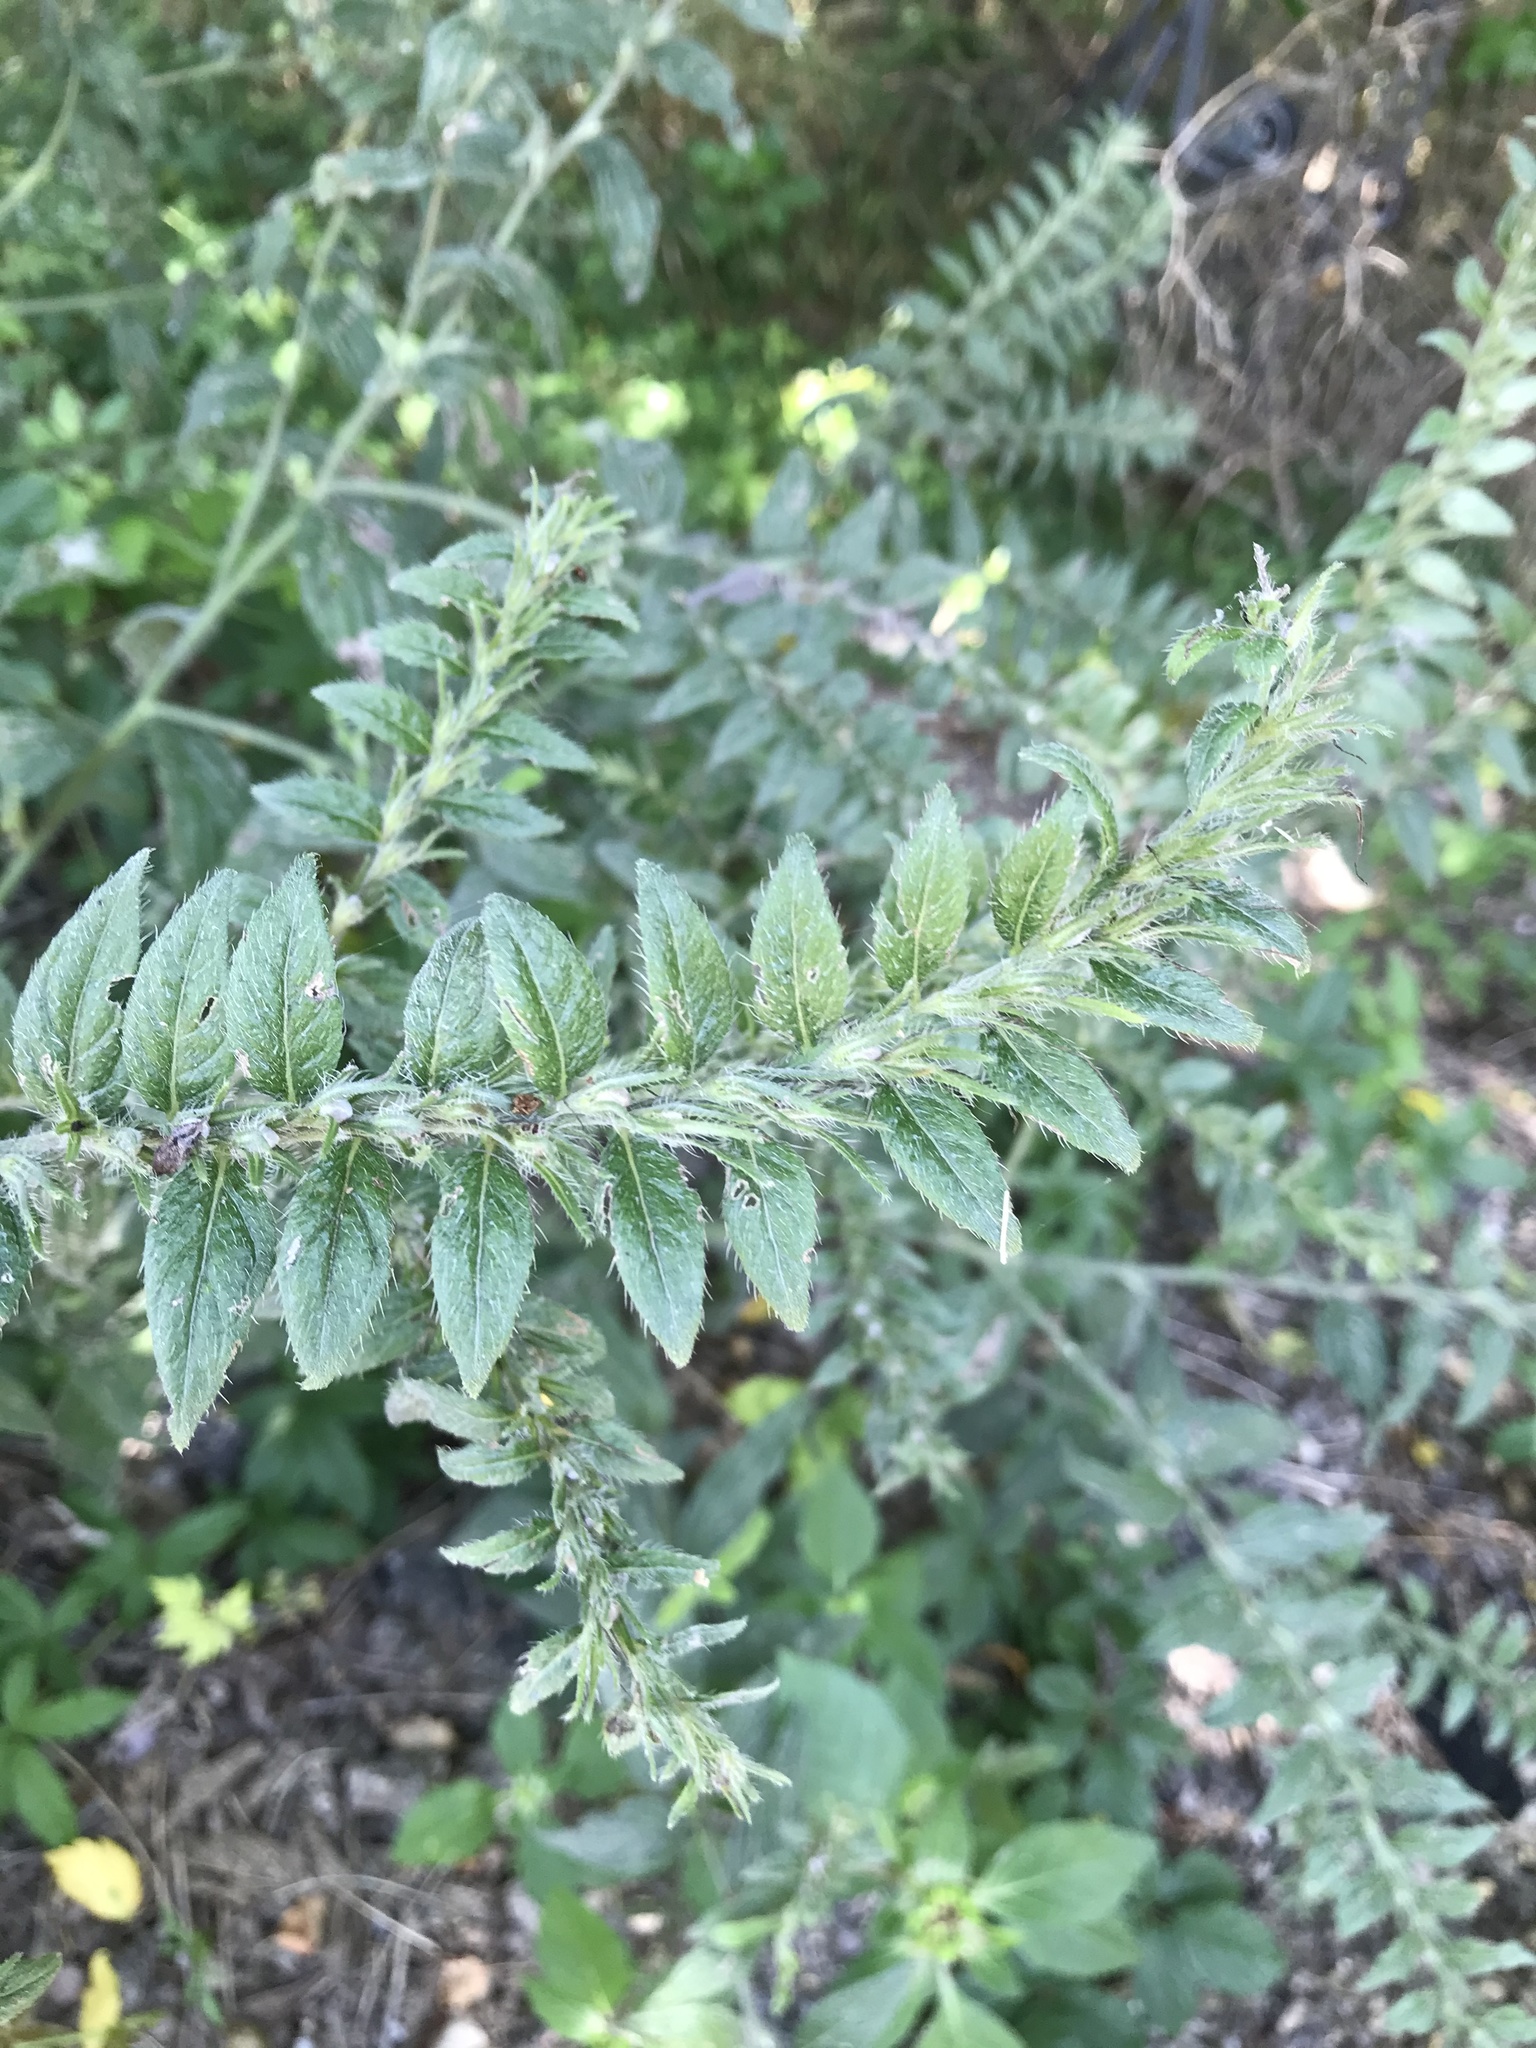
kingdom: Plantae
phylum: Tracheophyta
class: Magnoliopsida
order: Boraginales
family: Boraginaceae
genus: Lithospermum
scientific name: Lithospermum caroliniense
